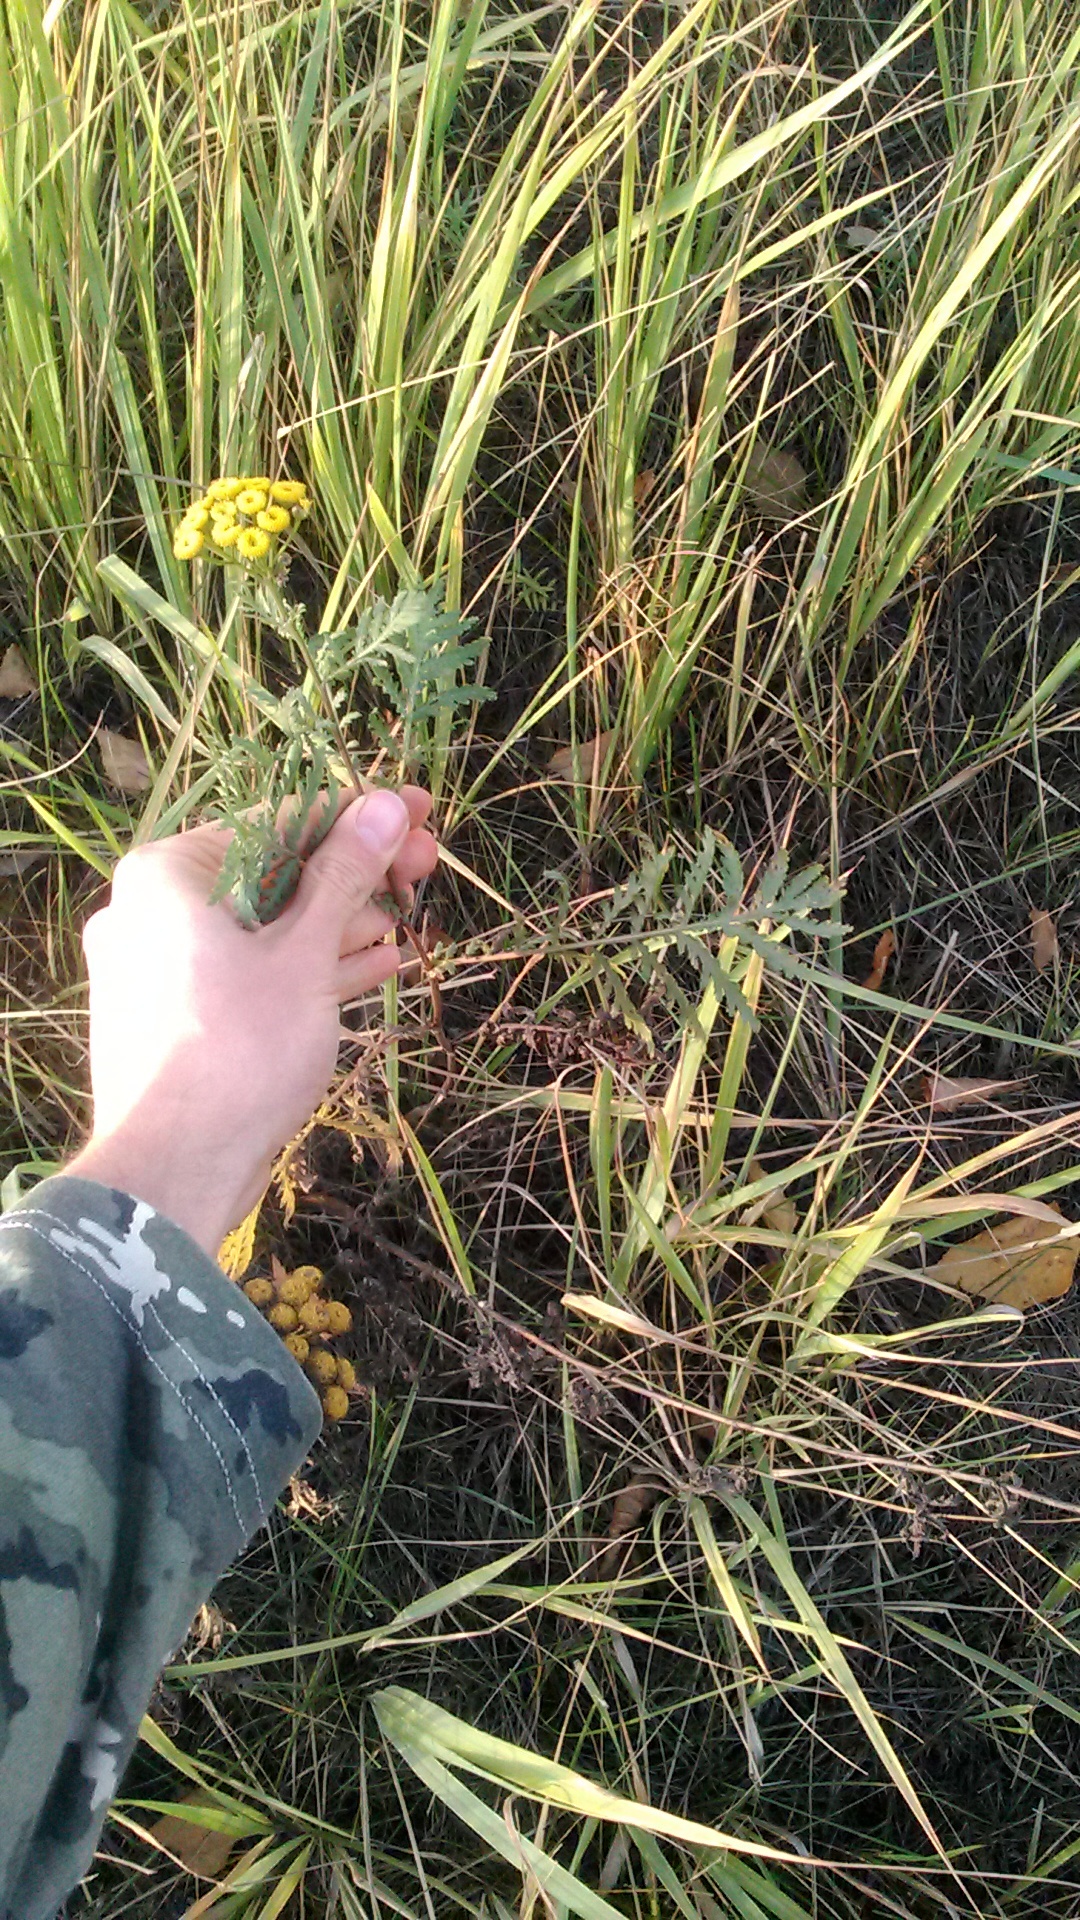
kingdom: Plantae
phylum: Tracheophyta
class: Magnoliopsida
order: Asterales
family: Asteraceae
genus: Tanacetum
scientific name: Tanacetum vulgare
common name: Common tansy
